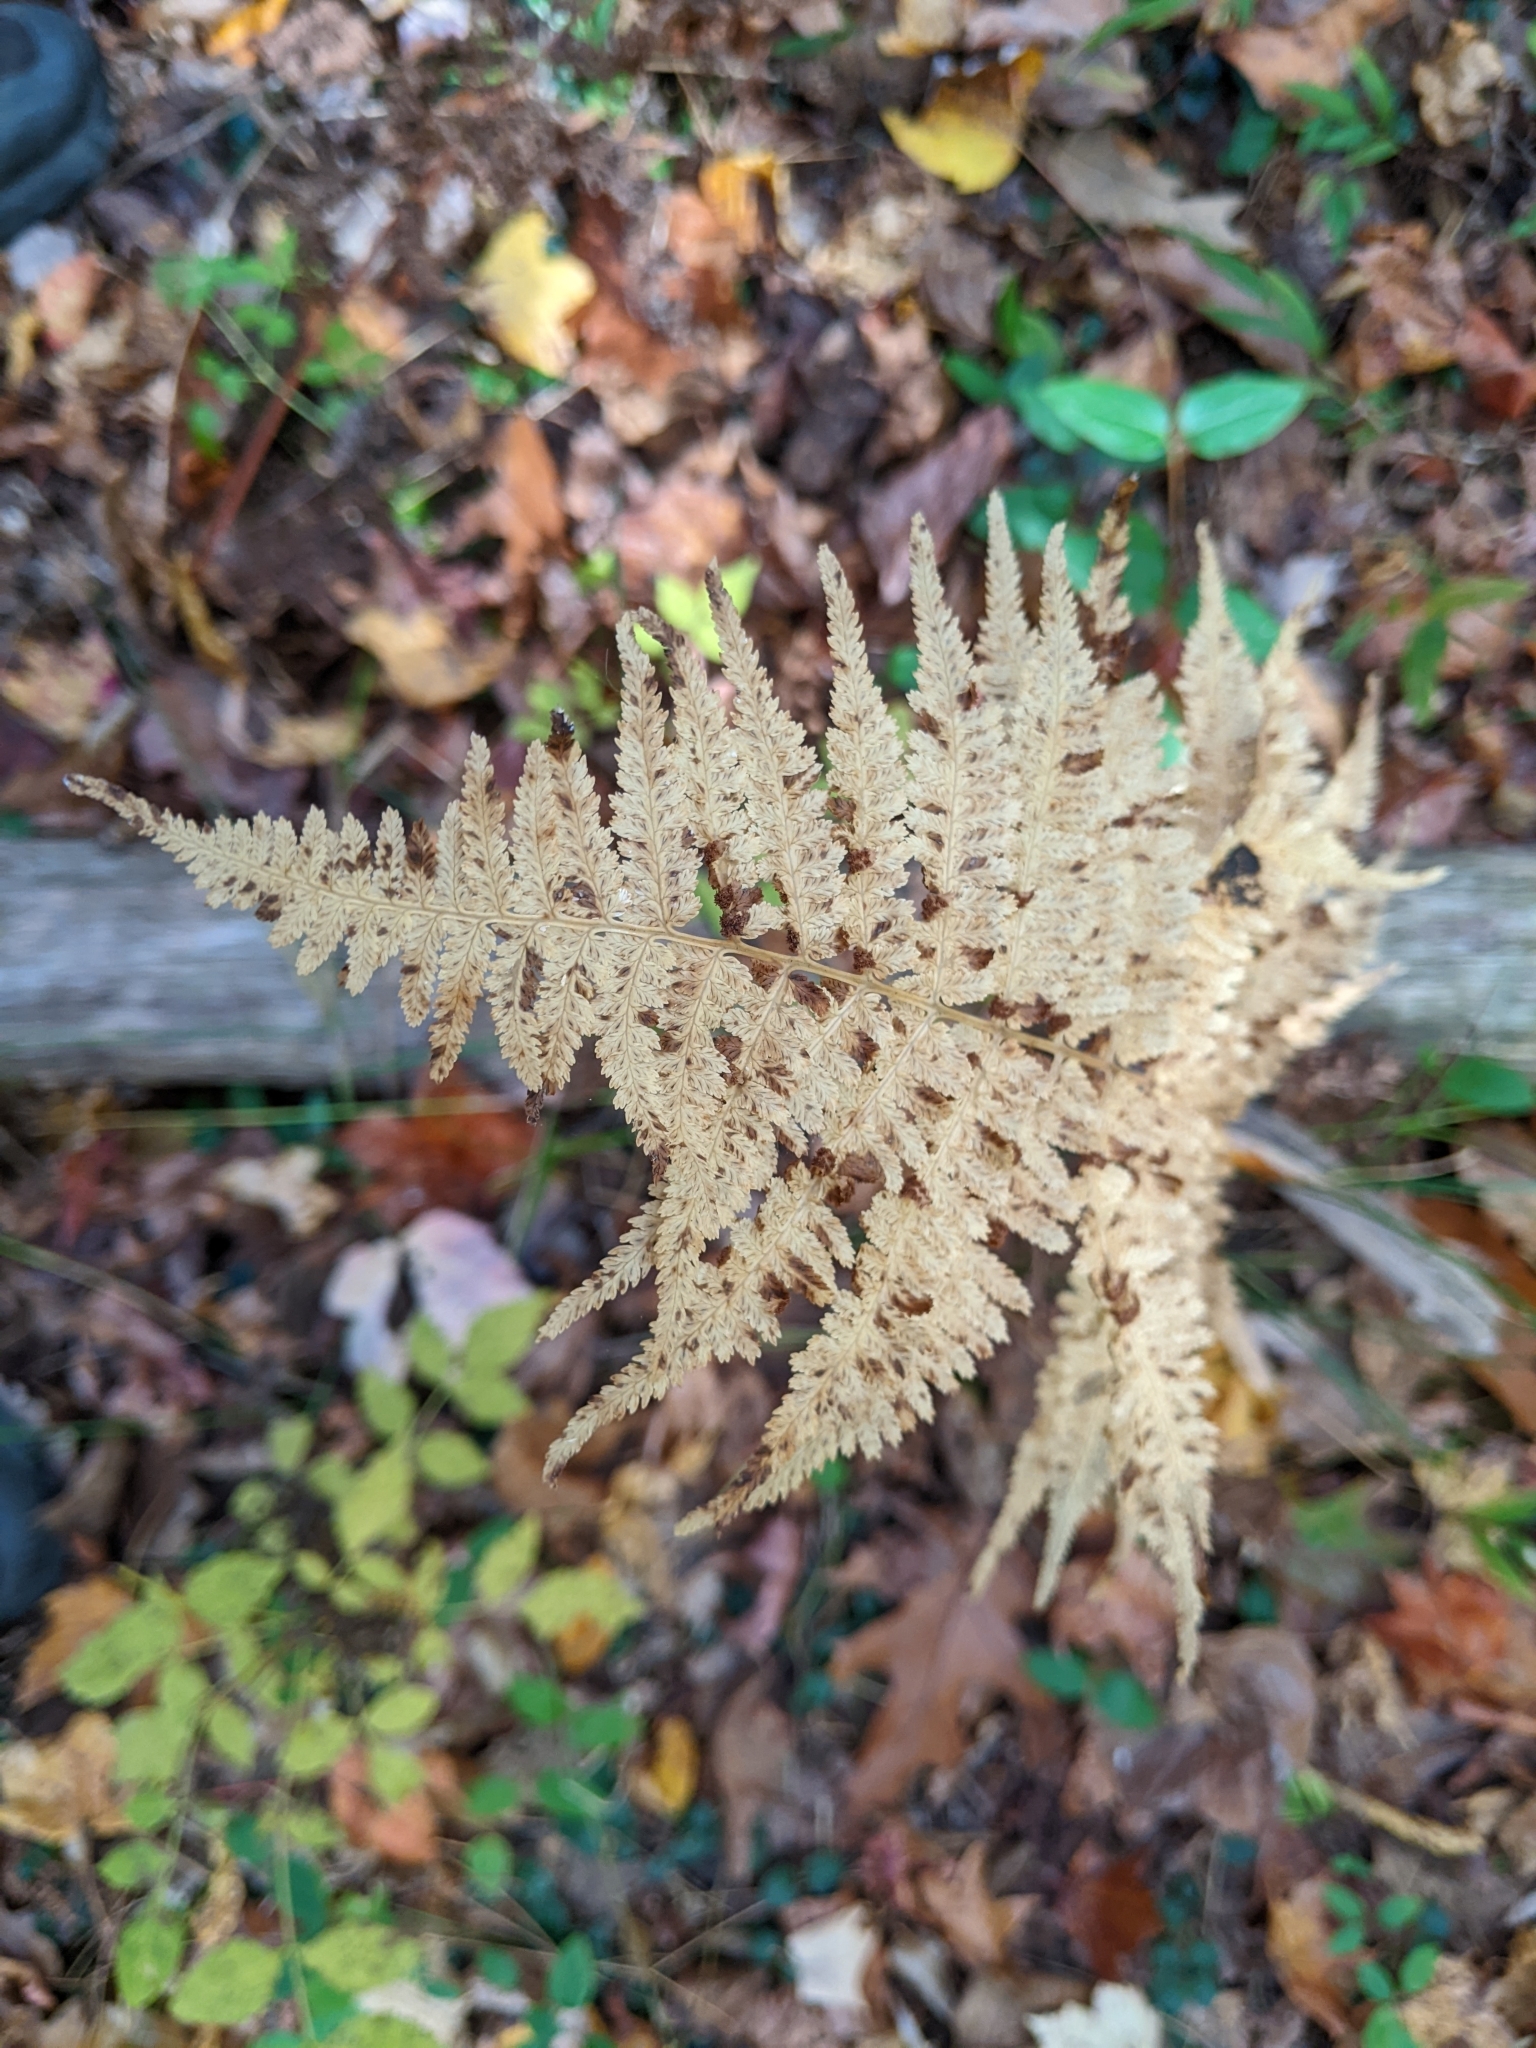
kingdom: Plantae
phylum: Tracheophyta
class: Polypodiopsida
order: Polypodiales
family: Athyriaceae
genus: Athyrium
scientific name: Athyrium asplenioides
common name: Southern lady fern
